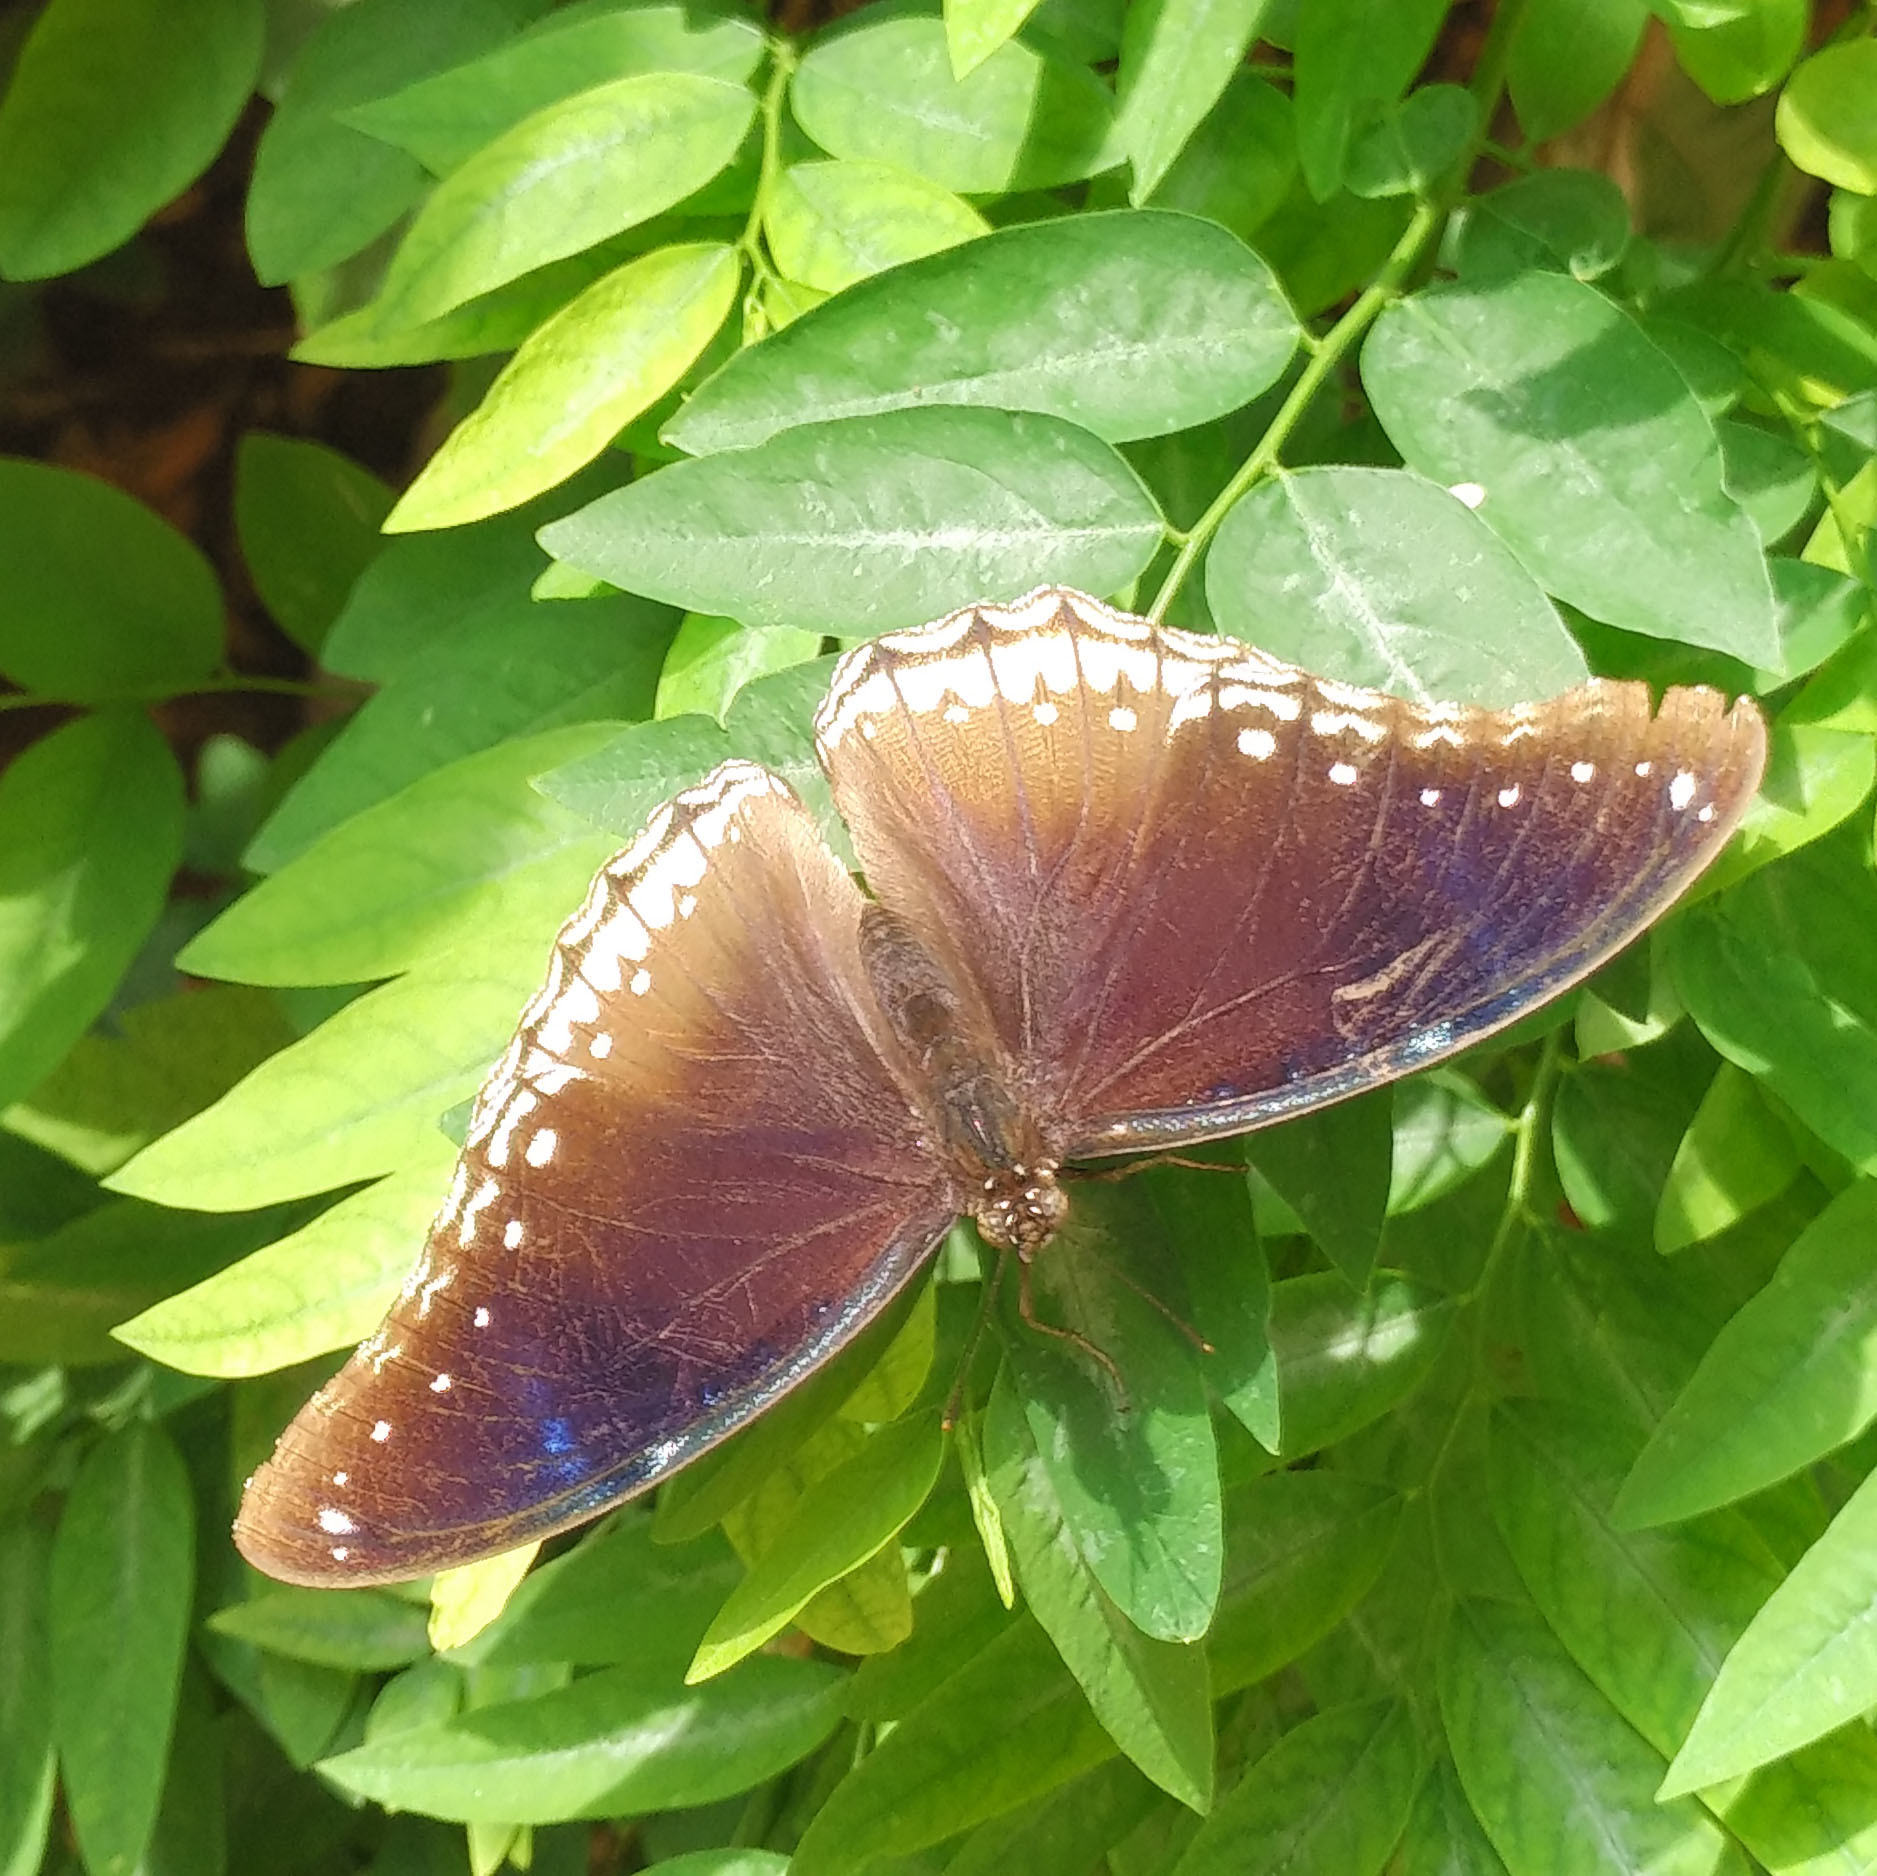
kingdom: Animalia
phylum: Arthropoda
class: Insecta
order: Lepidoptera
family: Nymphalidae
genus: Hypolimnas
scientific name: Hypolimnas bolina
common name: Great eggfly
